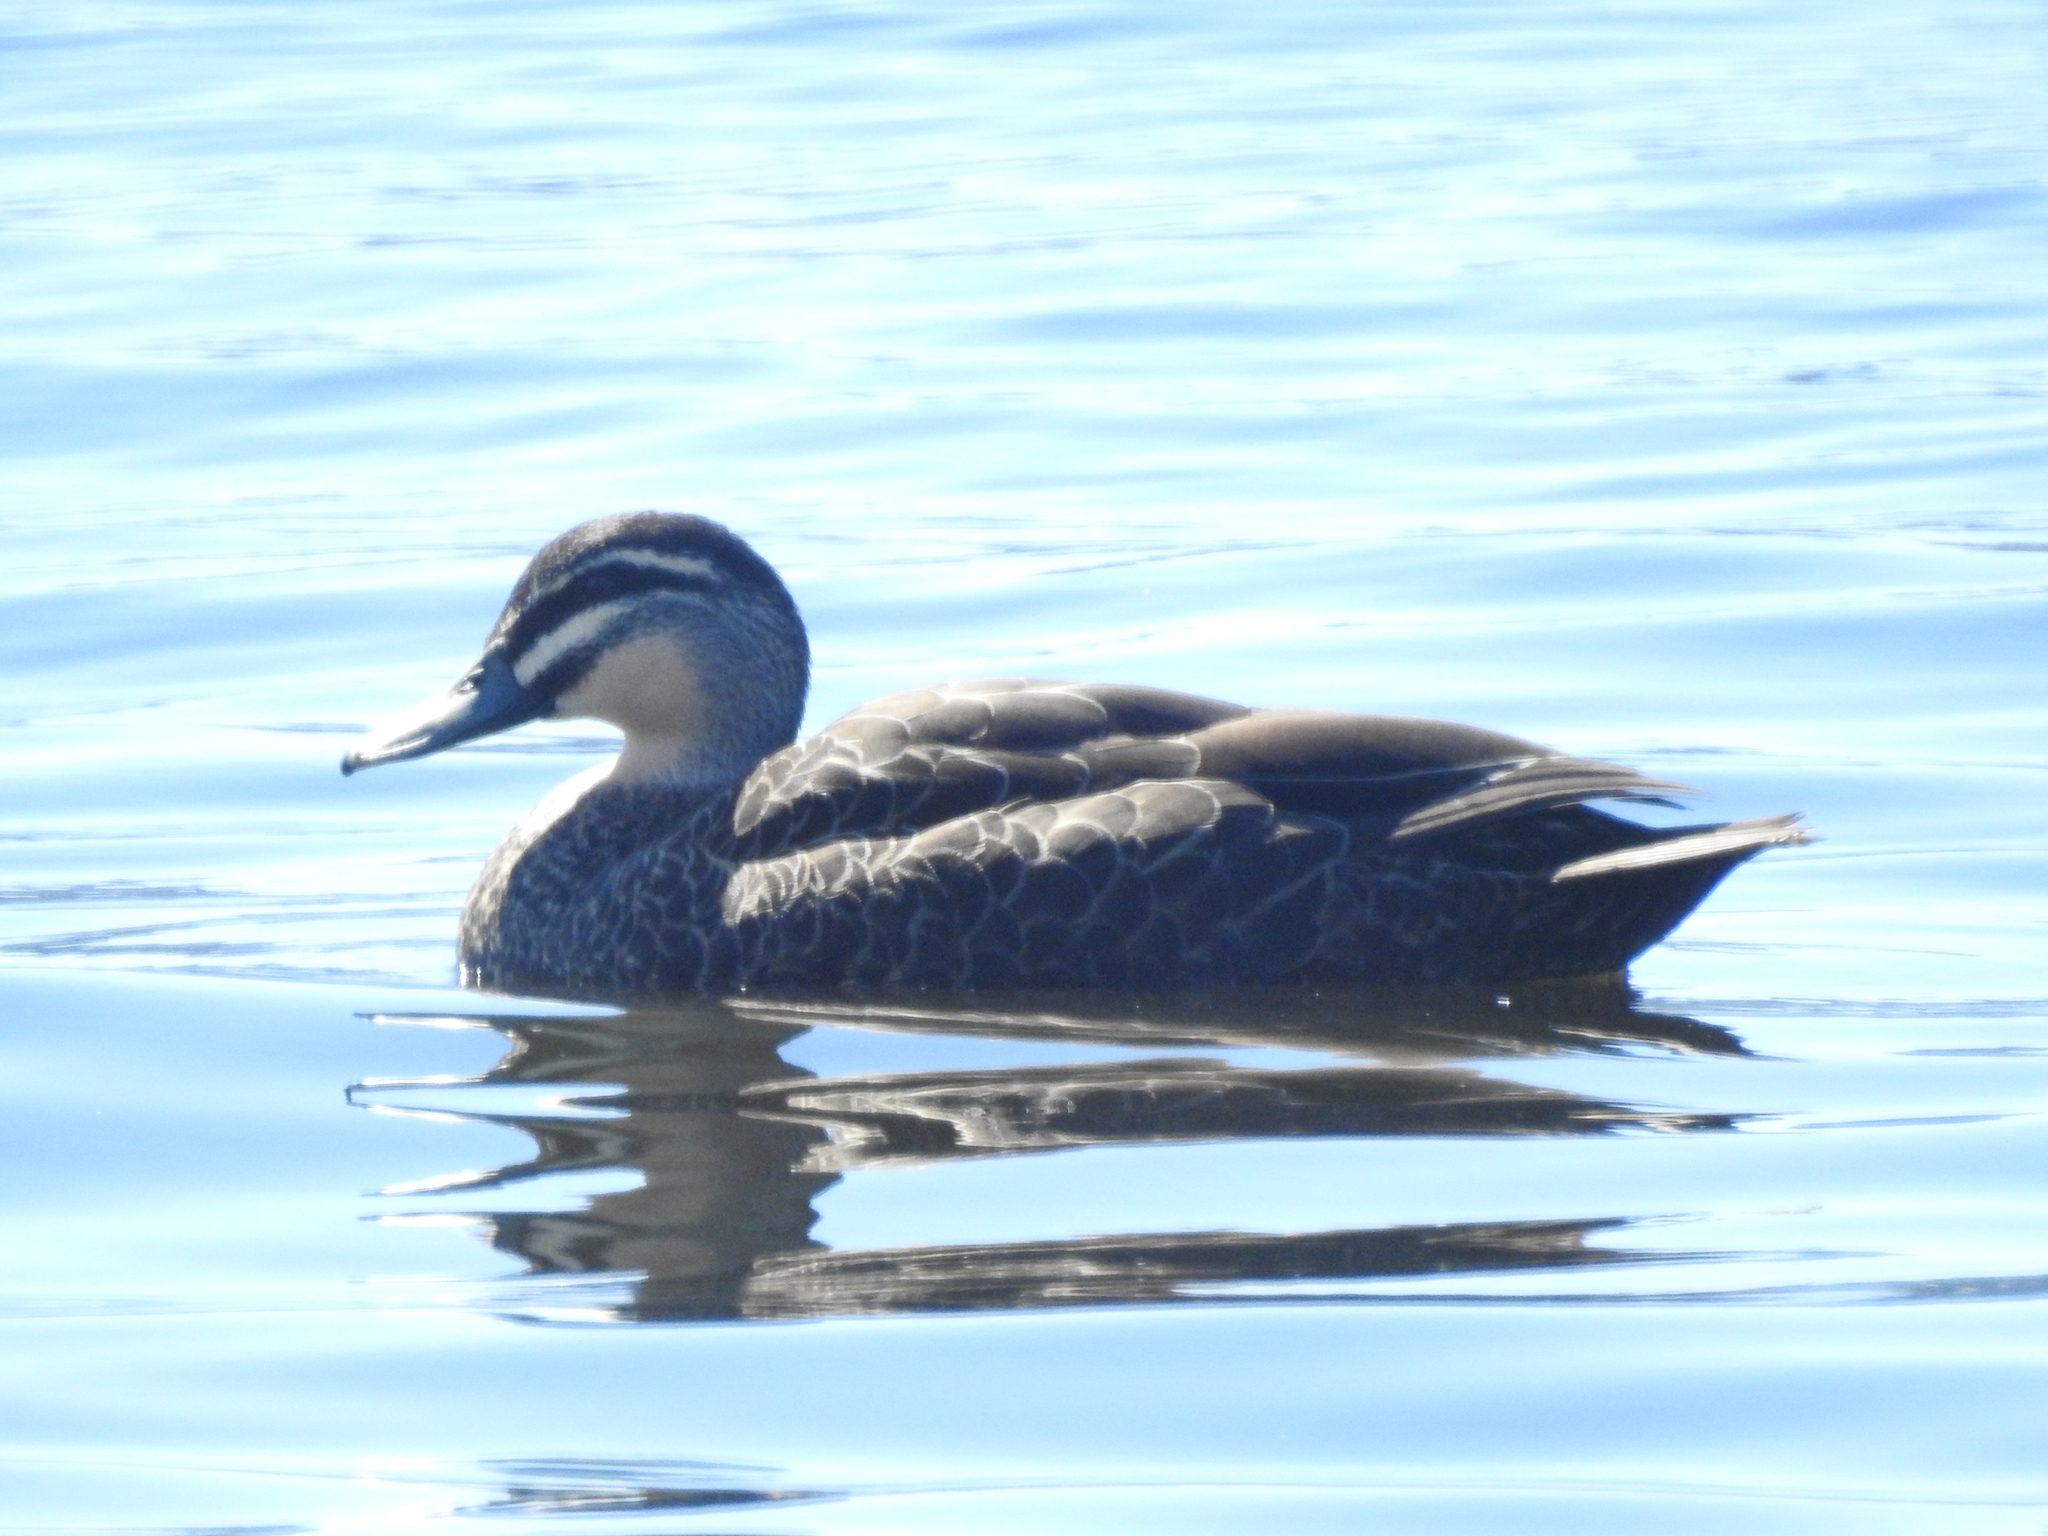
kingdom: Animalia
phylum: Chordata
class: Aves
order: Anseriformes
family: Anatidae
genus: Anas
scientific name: Anas
